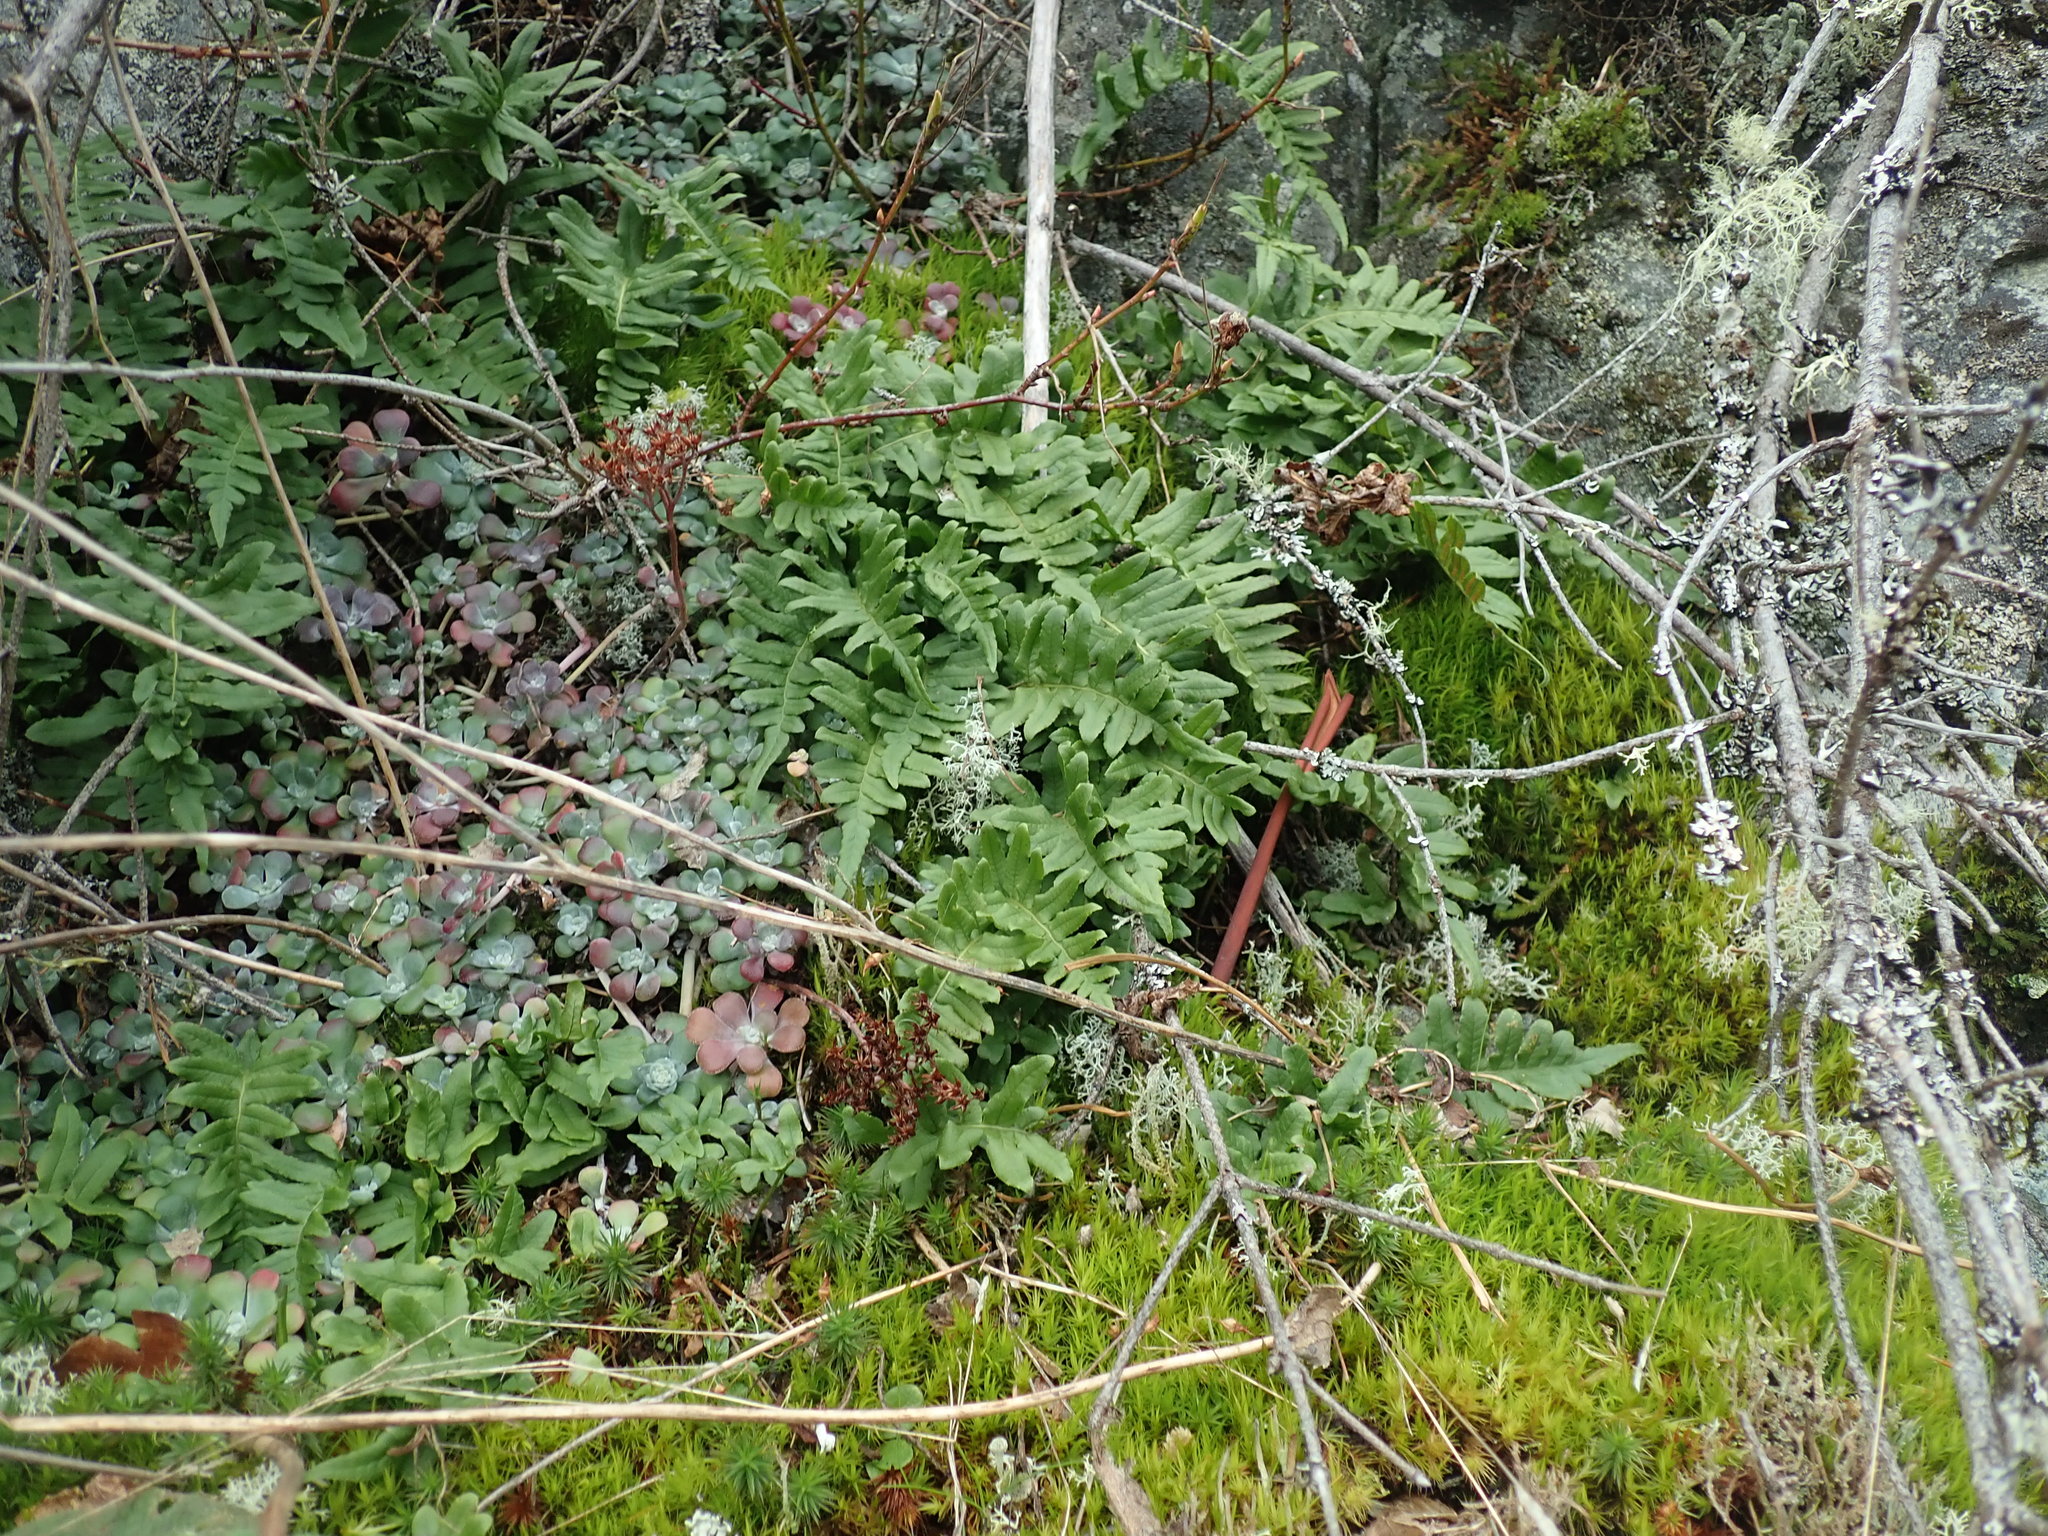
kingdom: Plantae
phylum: Tracheophyta
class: Polypodiopsida
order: Polypodiales
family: Polypodiaceae
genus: Polypodium
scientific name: Polypodium glycyrrhiza
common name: Licorice fern
